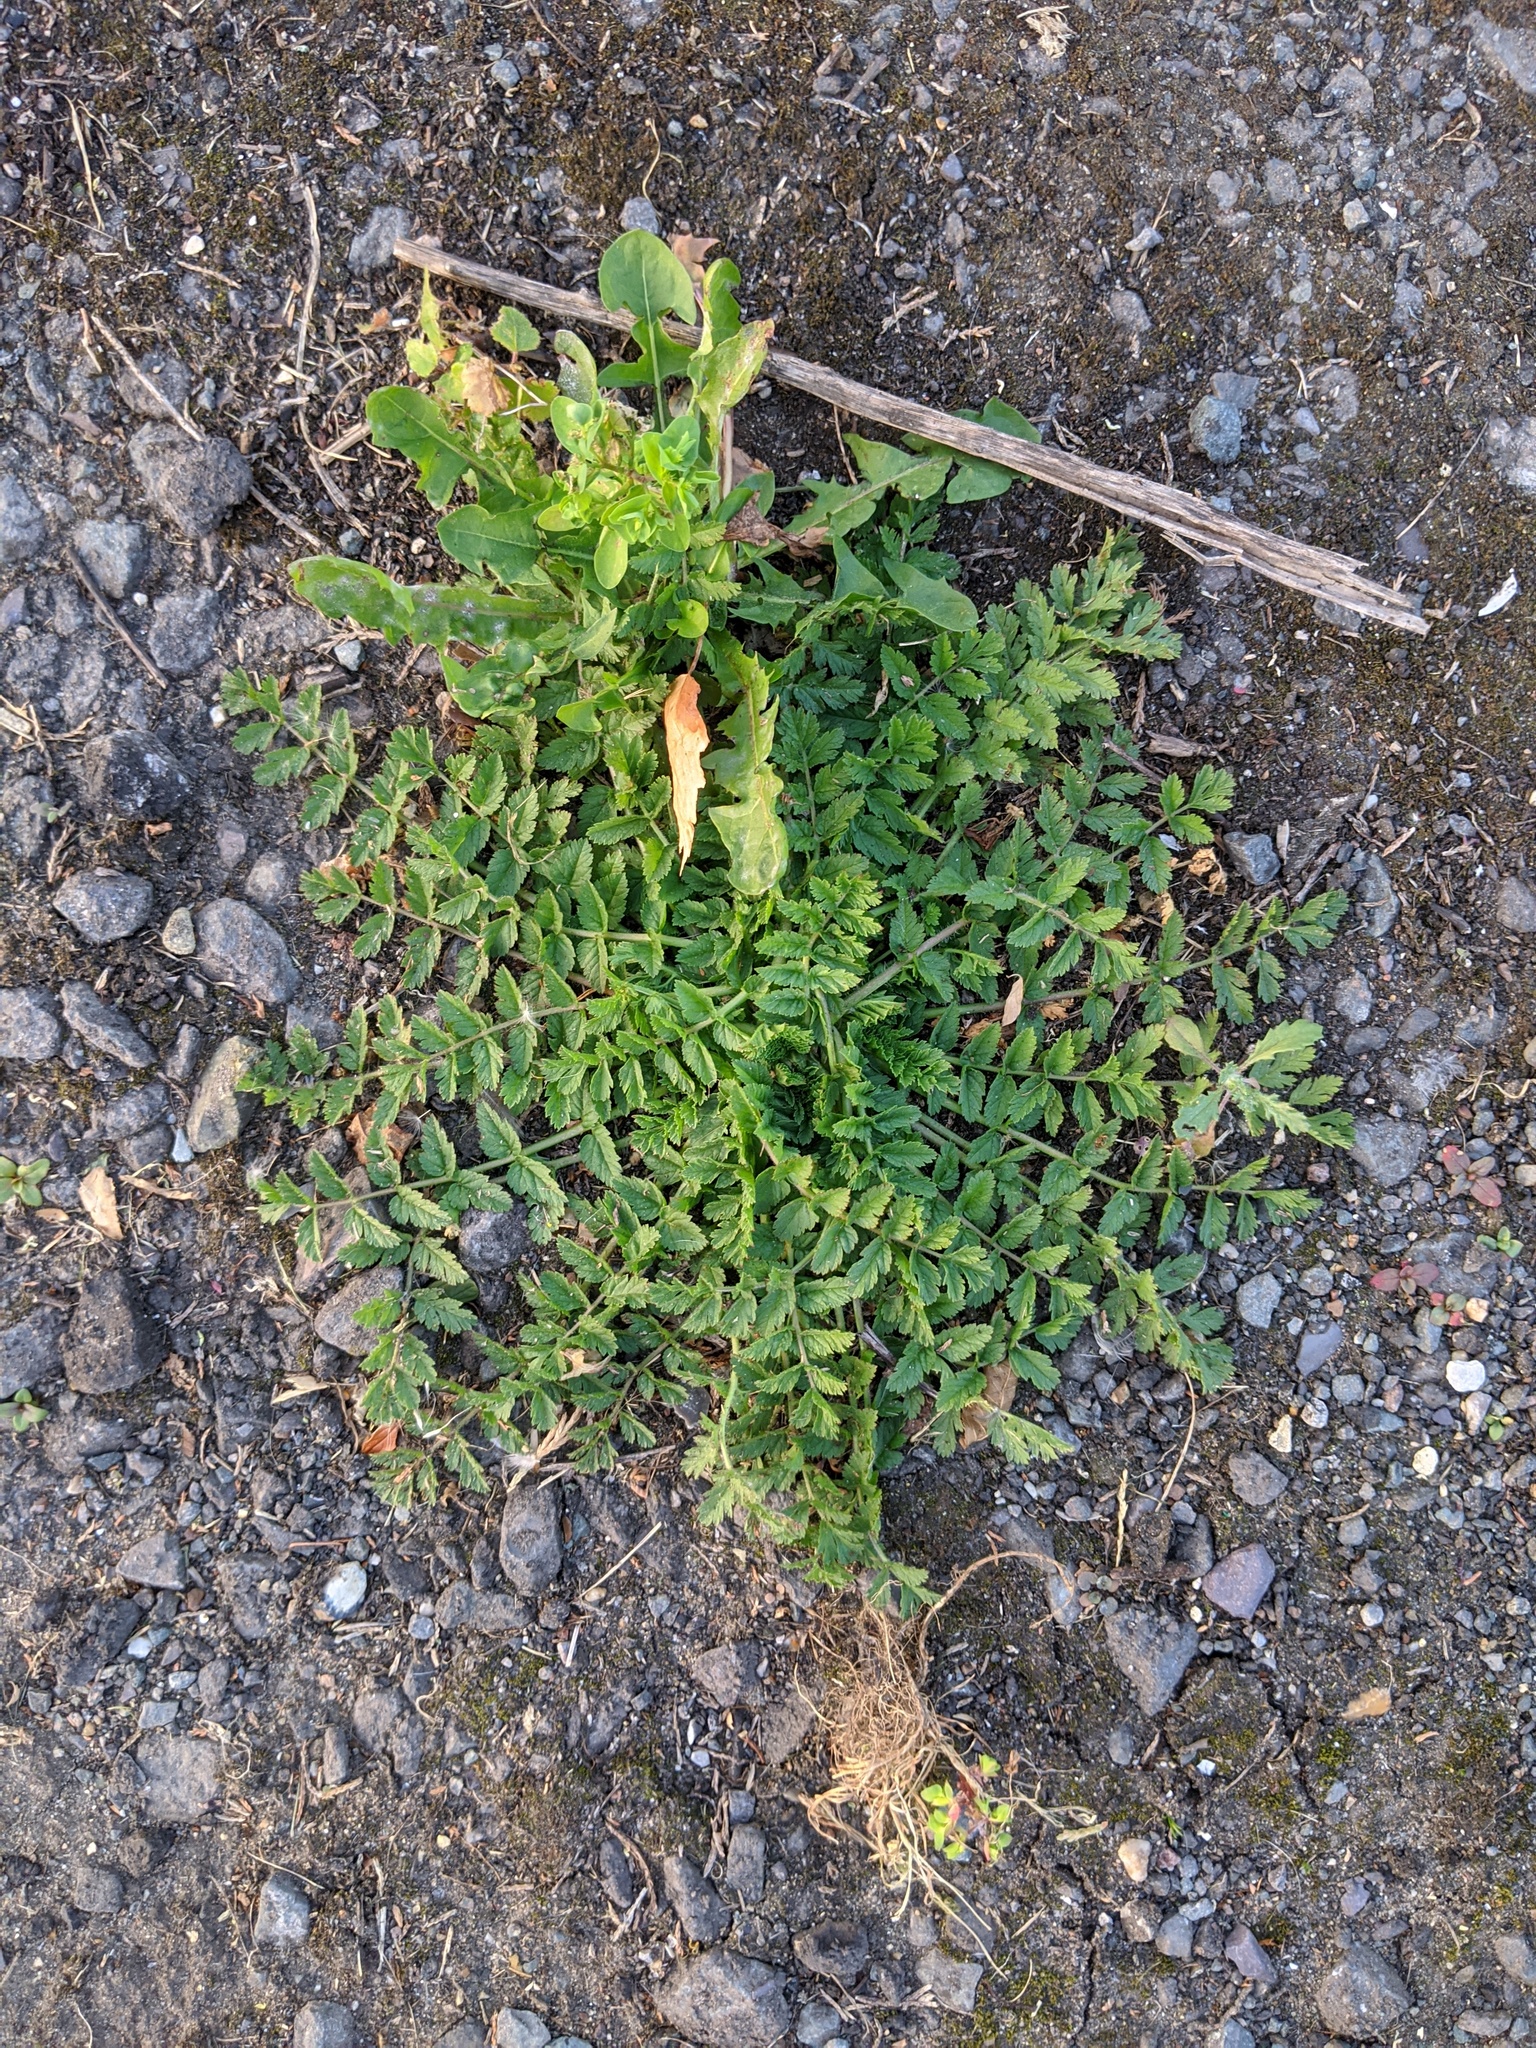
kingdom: Plantae
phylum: Tracheophyta
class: Magnoliopsida
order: Geraniales
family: Geraniaceae
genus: Erodium
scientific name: Erodium moschatum
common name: Musk stork's-bill
